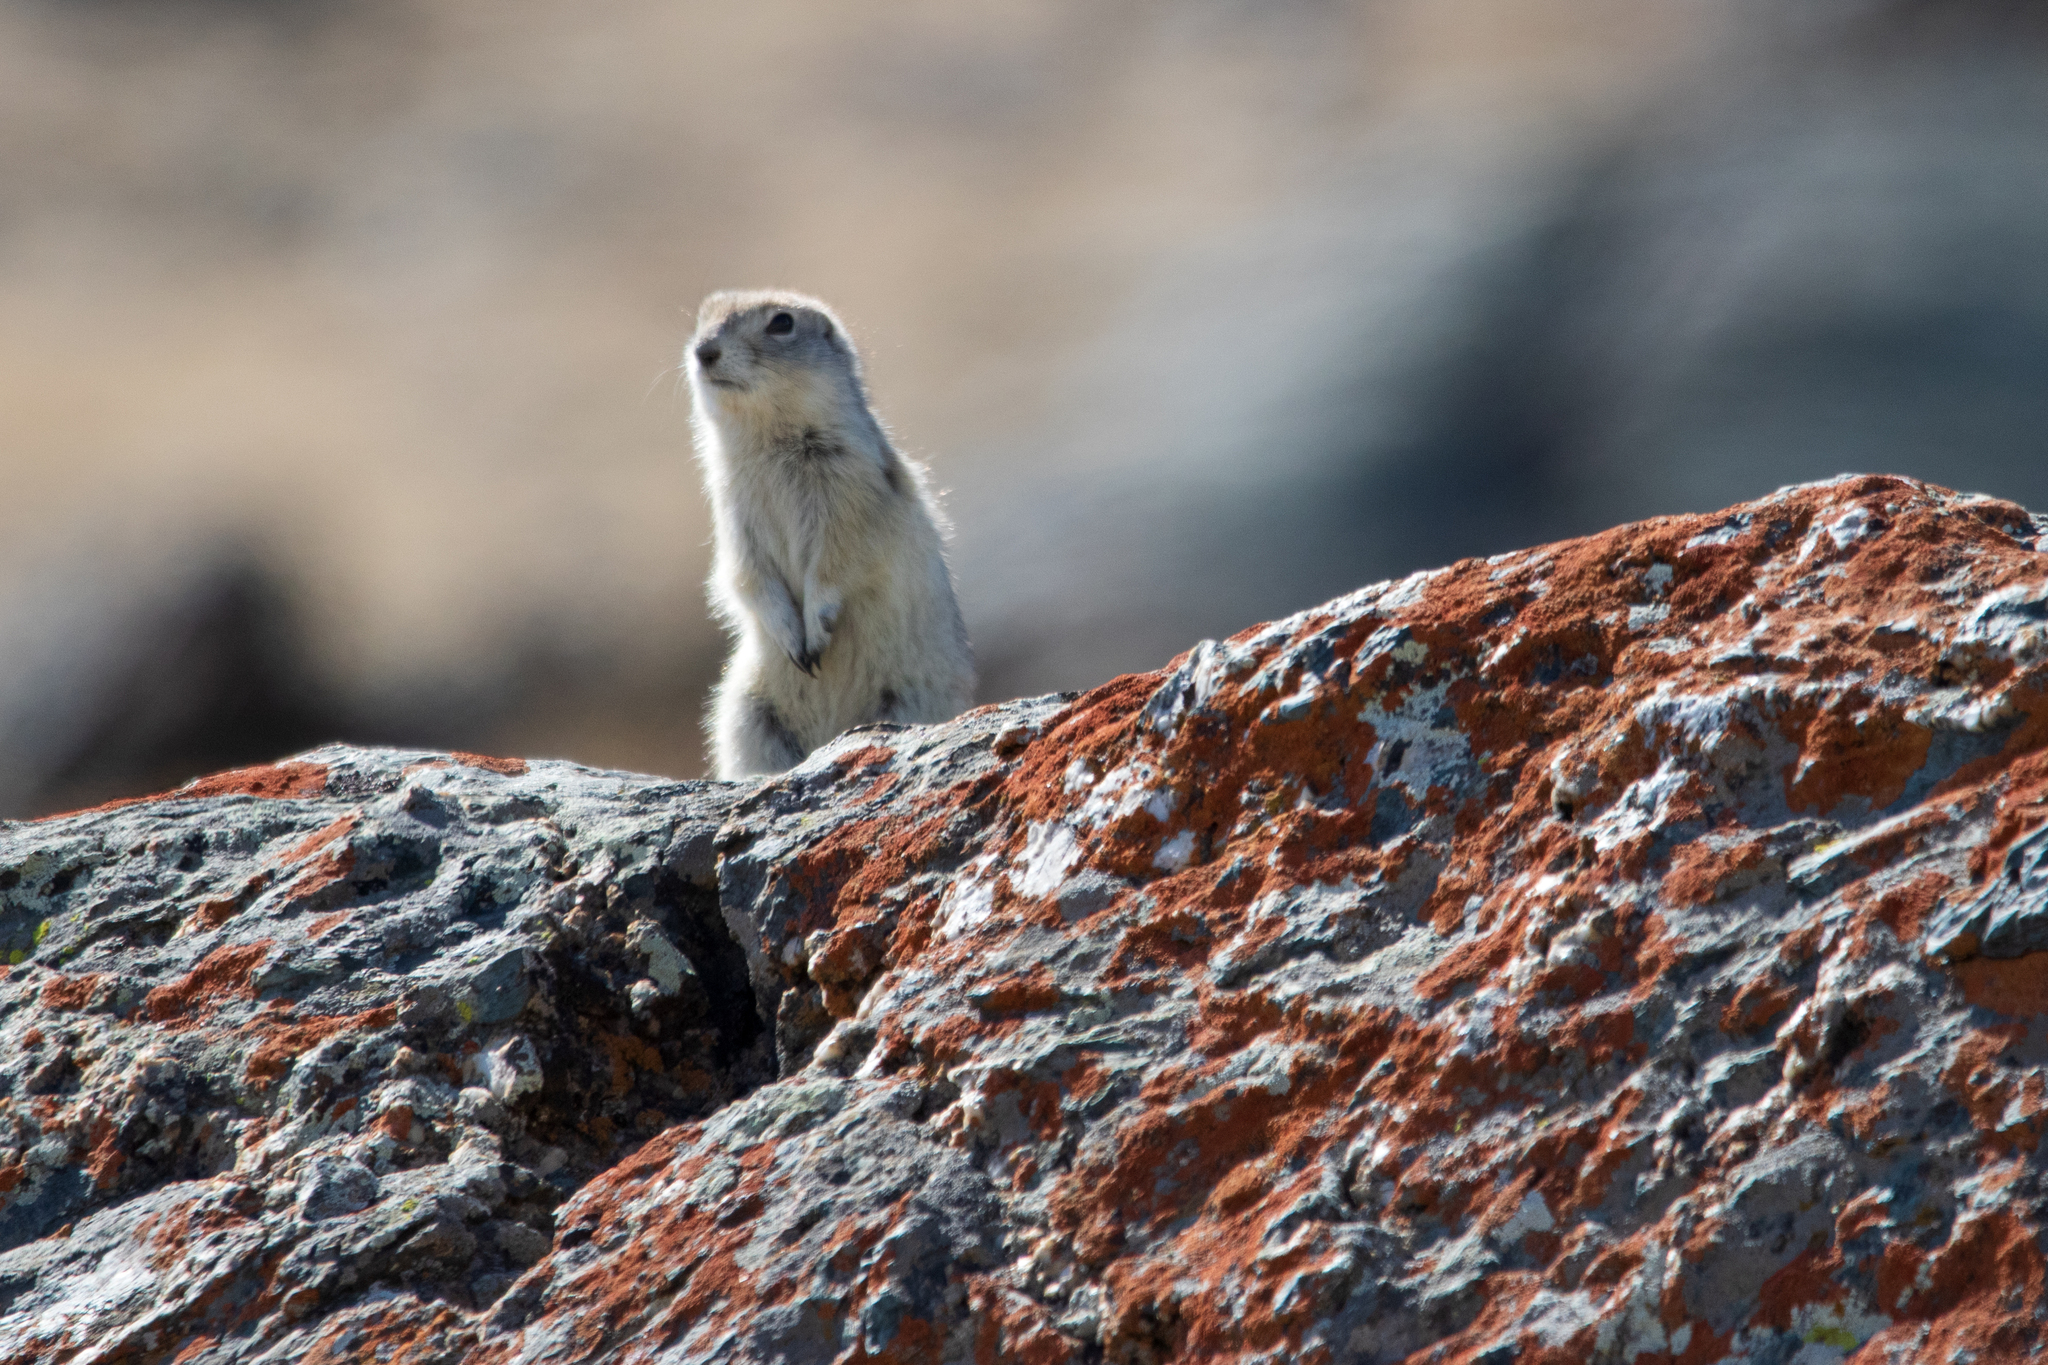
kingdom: Animalia
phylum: Chordata
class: Mammalia
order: Rodentia
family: Sciuridae
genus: Urocitellus
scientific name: Urocitellus undulatus
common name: Long-tailed ground squirrel
